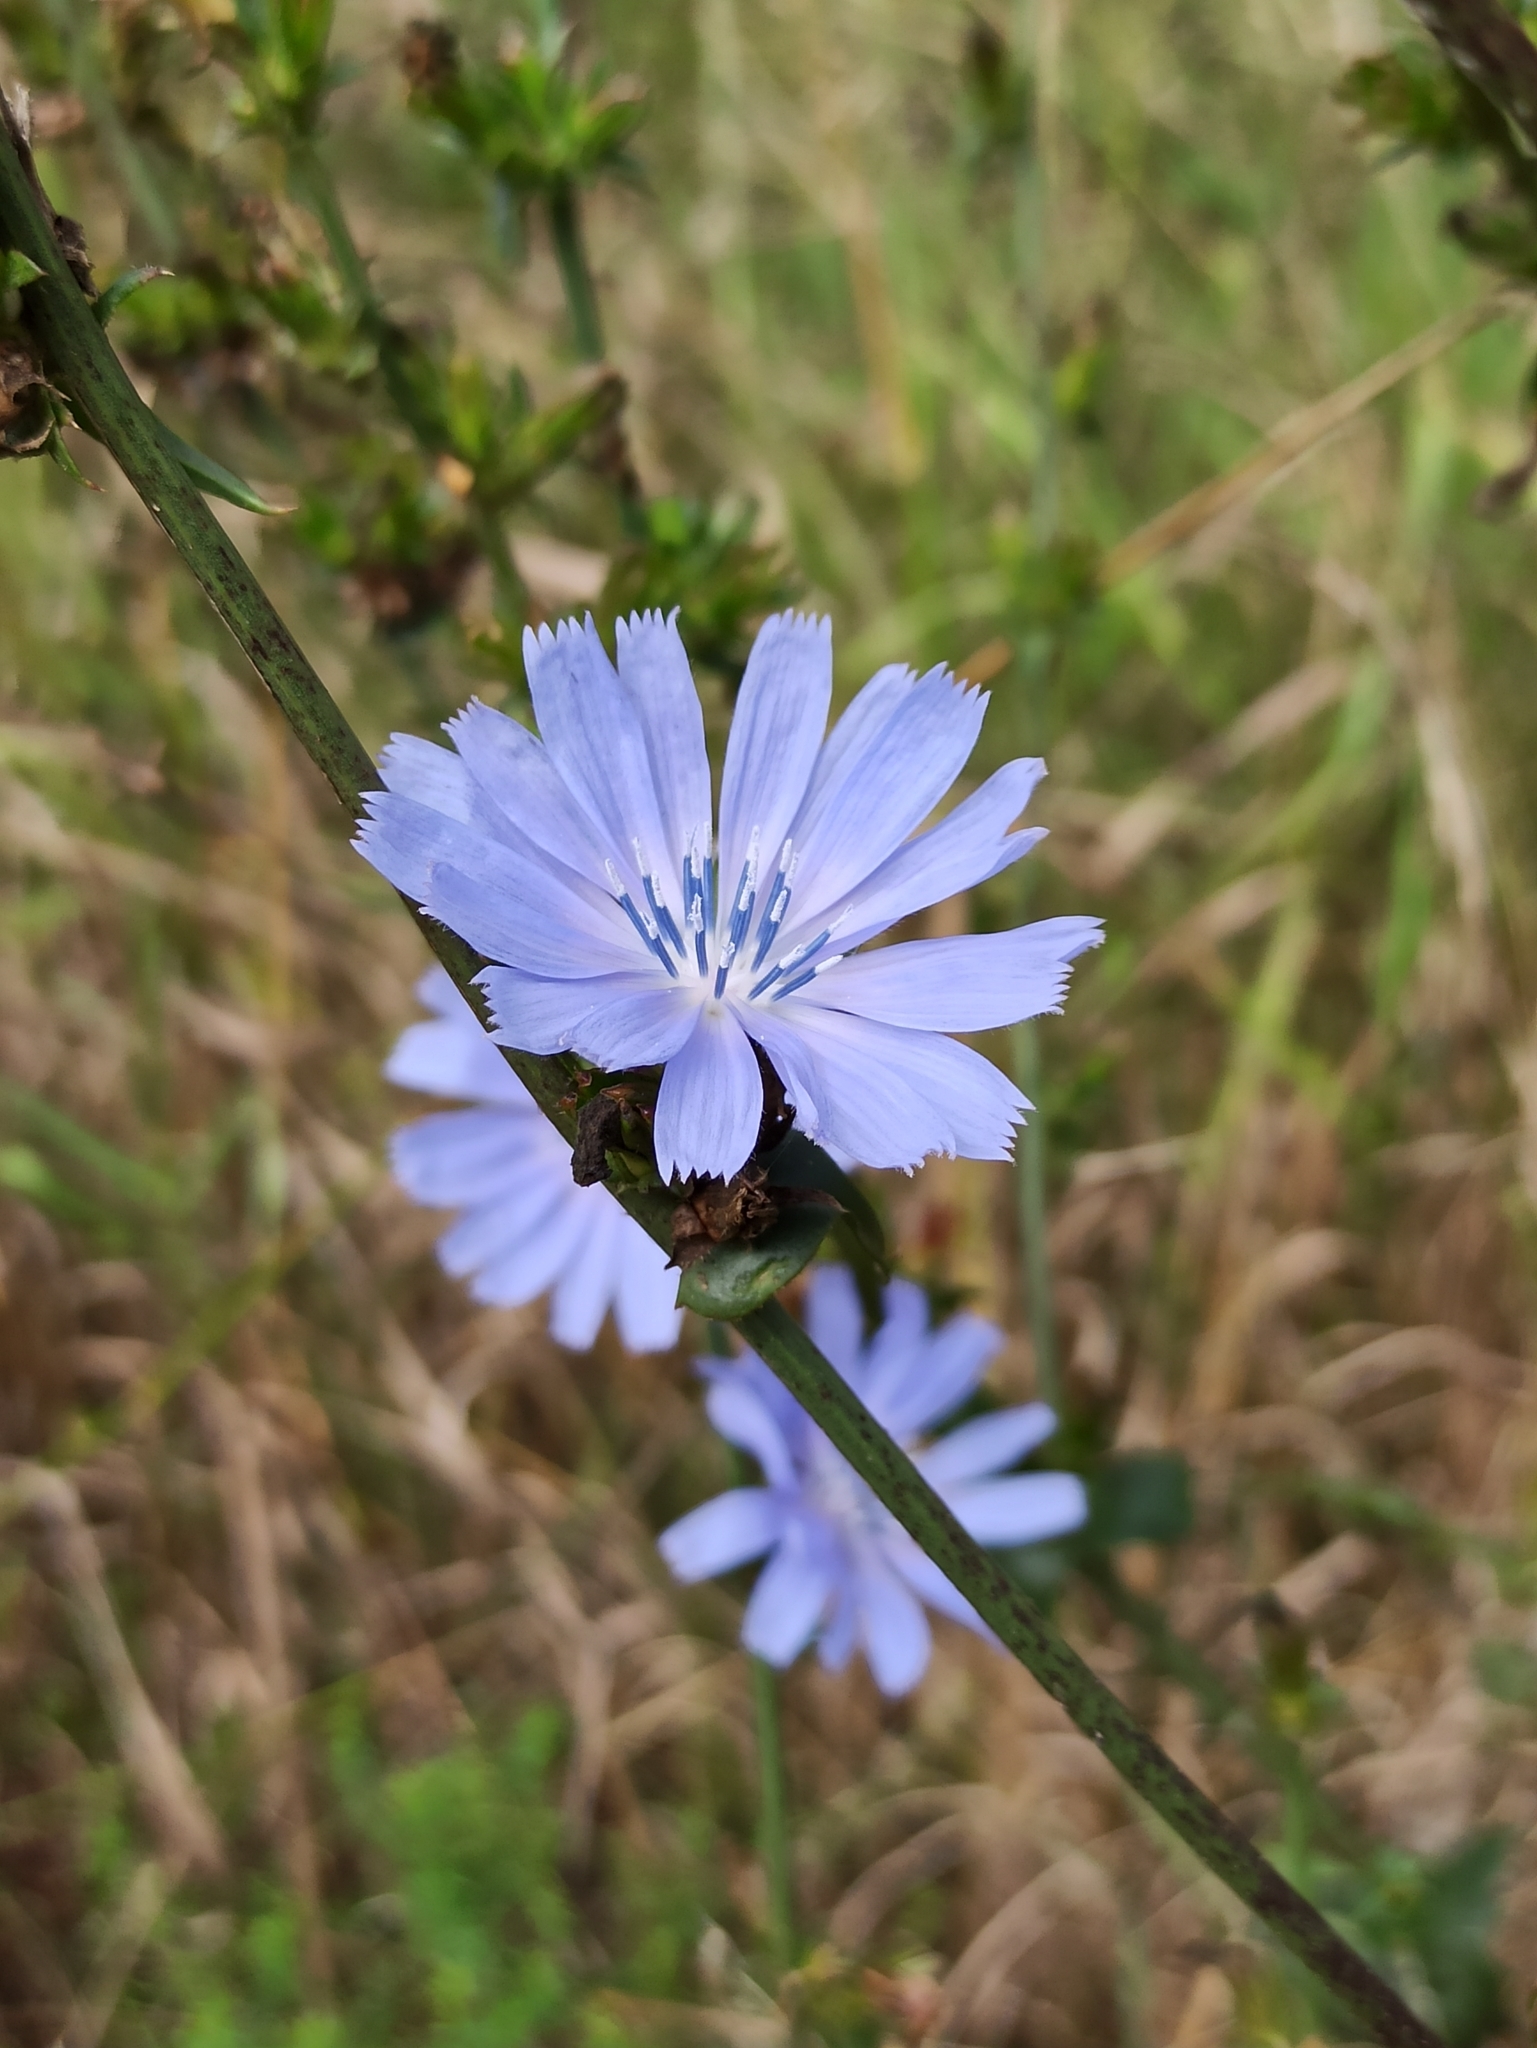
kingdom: Plantae
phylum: Tracheophyta
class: Magnoliopsida
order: Asterales
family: Asteraceae
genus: Cichorium
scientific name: Cichorium intybus
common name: Chicory
